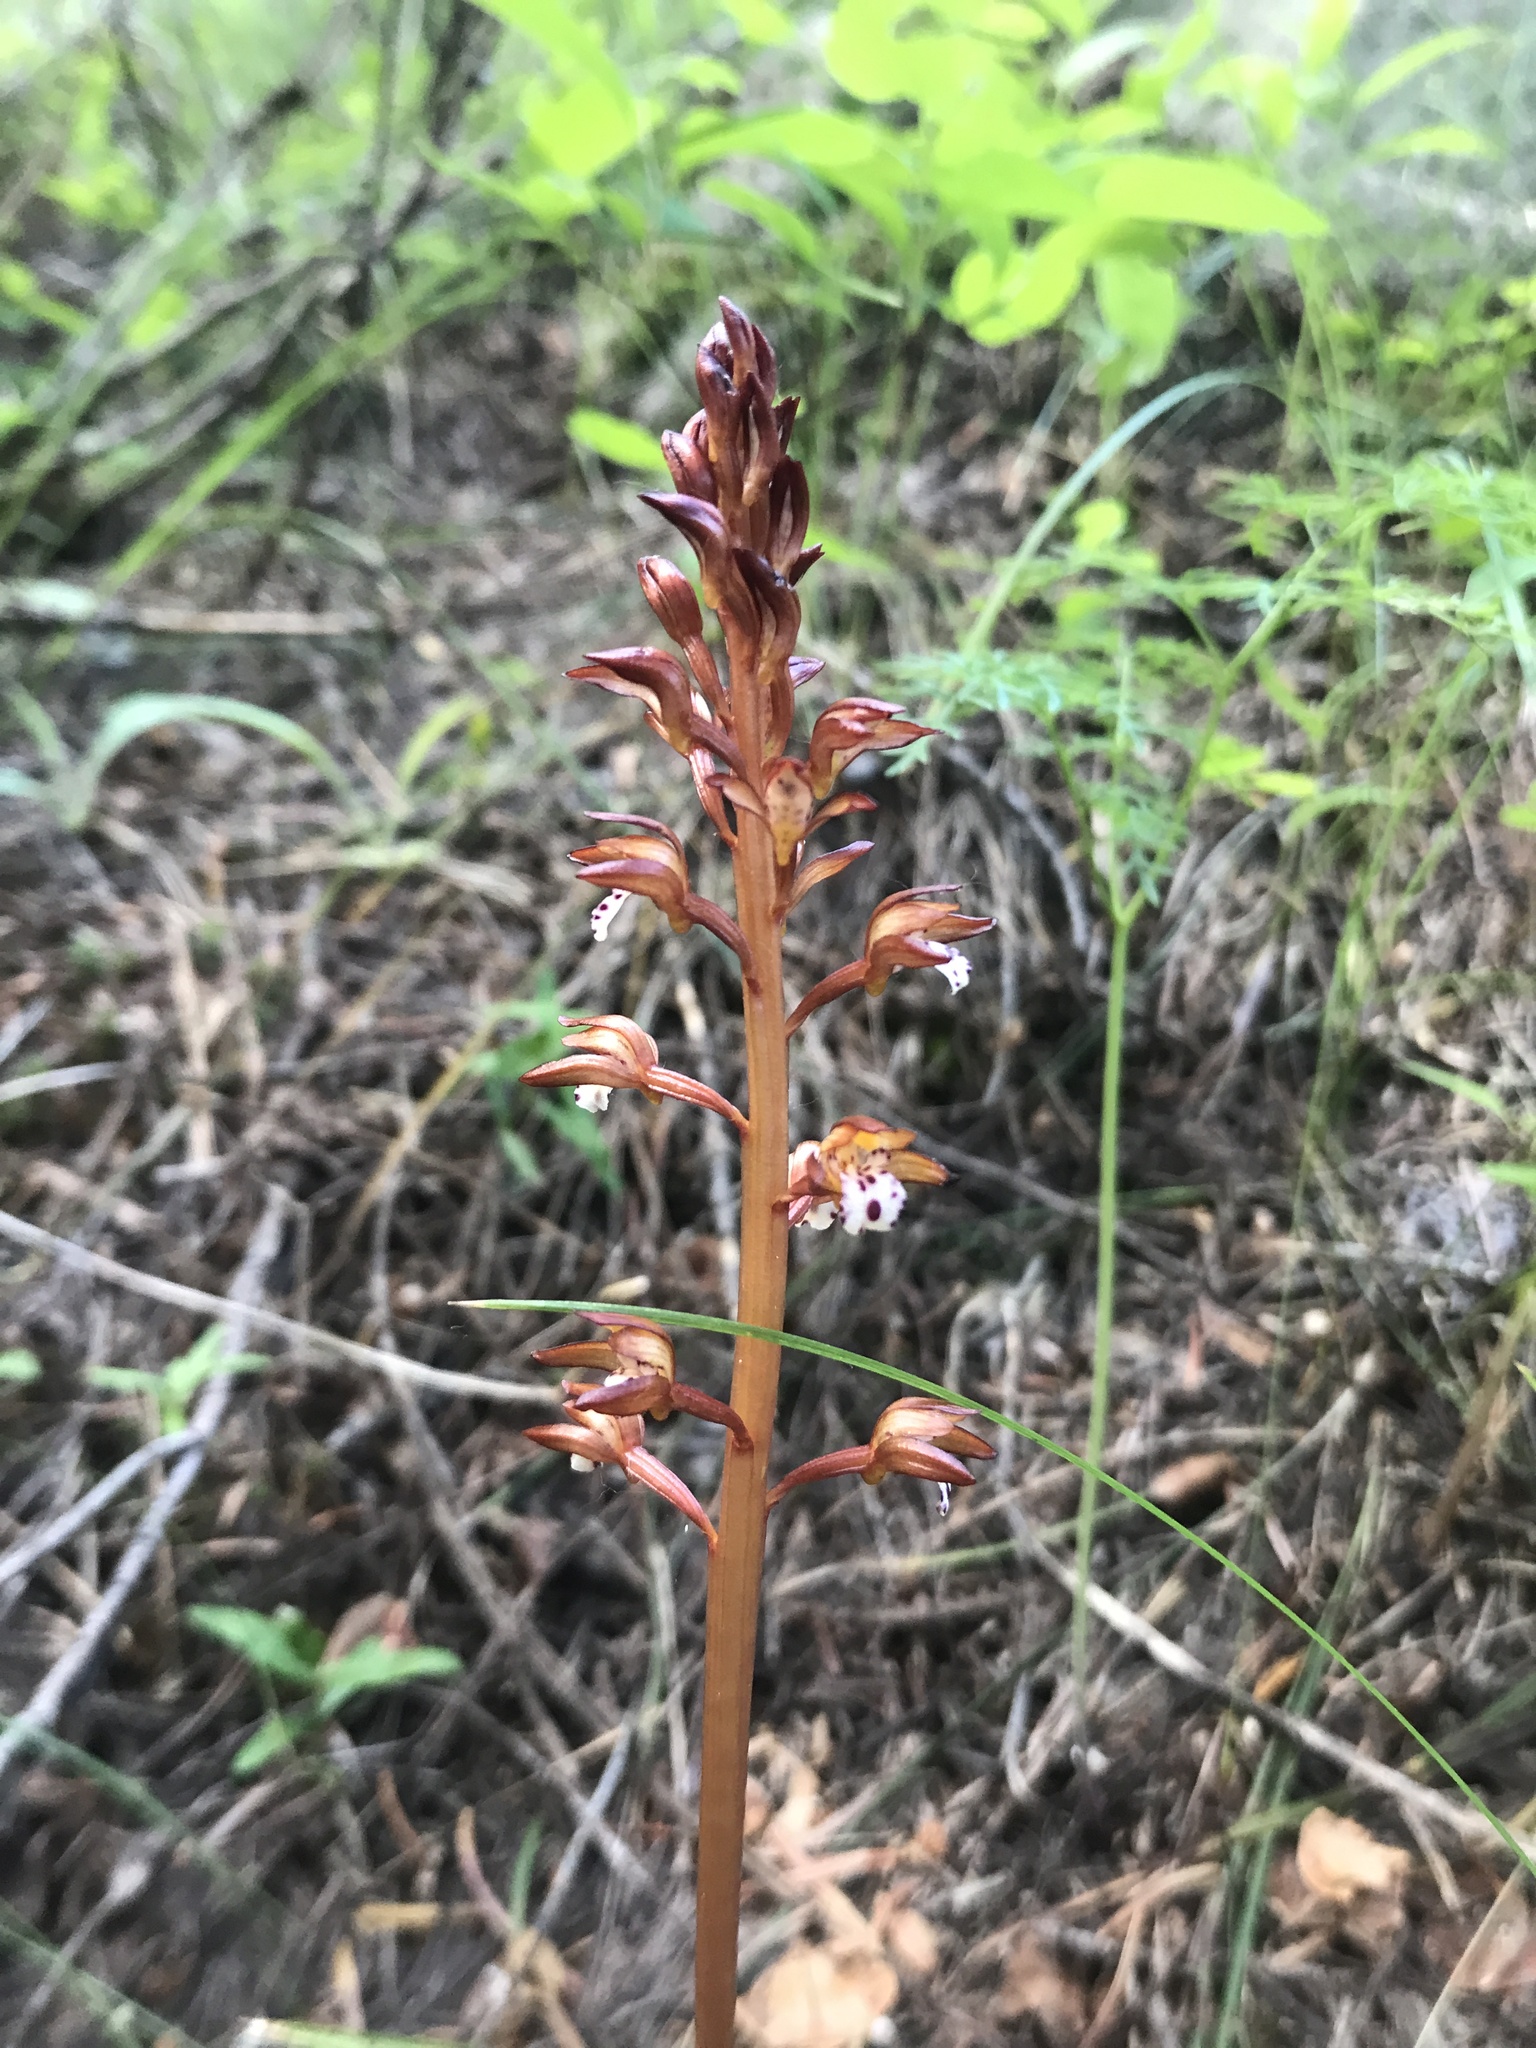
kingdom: Plantae
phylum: Tracheophyta
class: Liliopsida
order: Asparagales
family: Orchidaceae
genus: Corallorhiza
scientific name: Corallorhiza maculata
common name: Spotted coralroot
